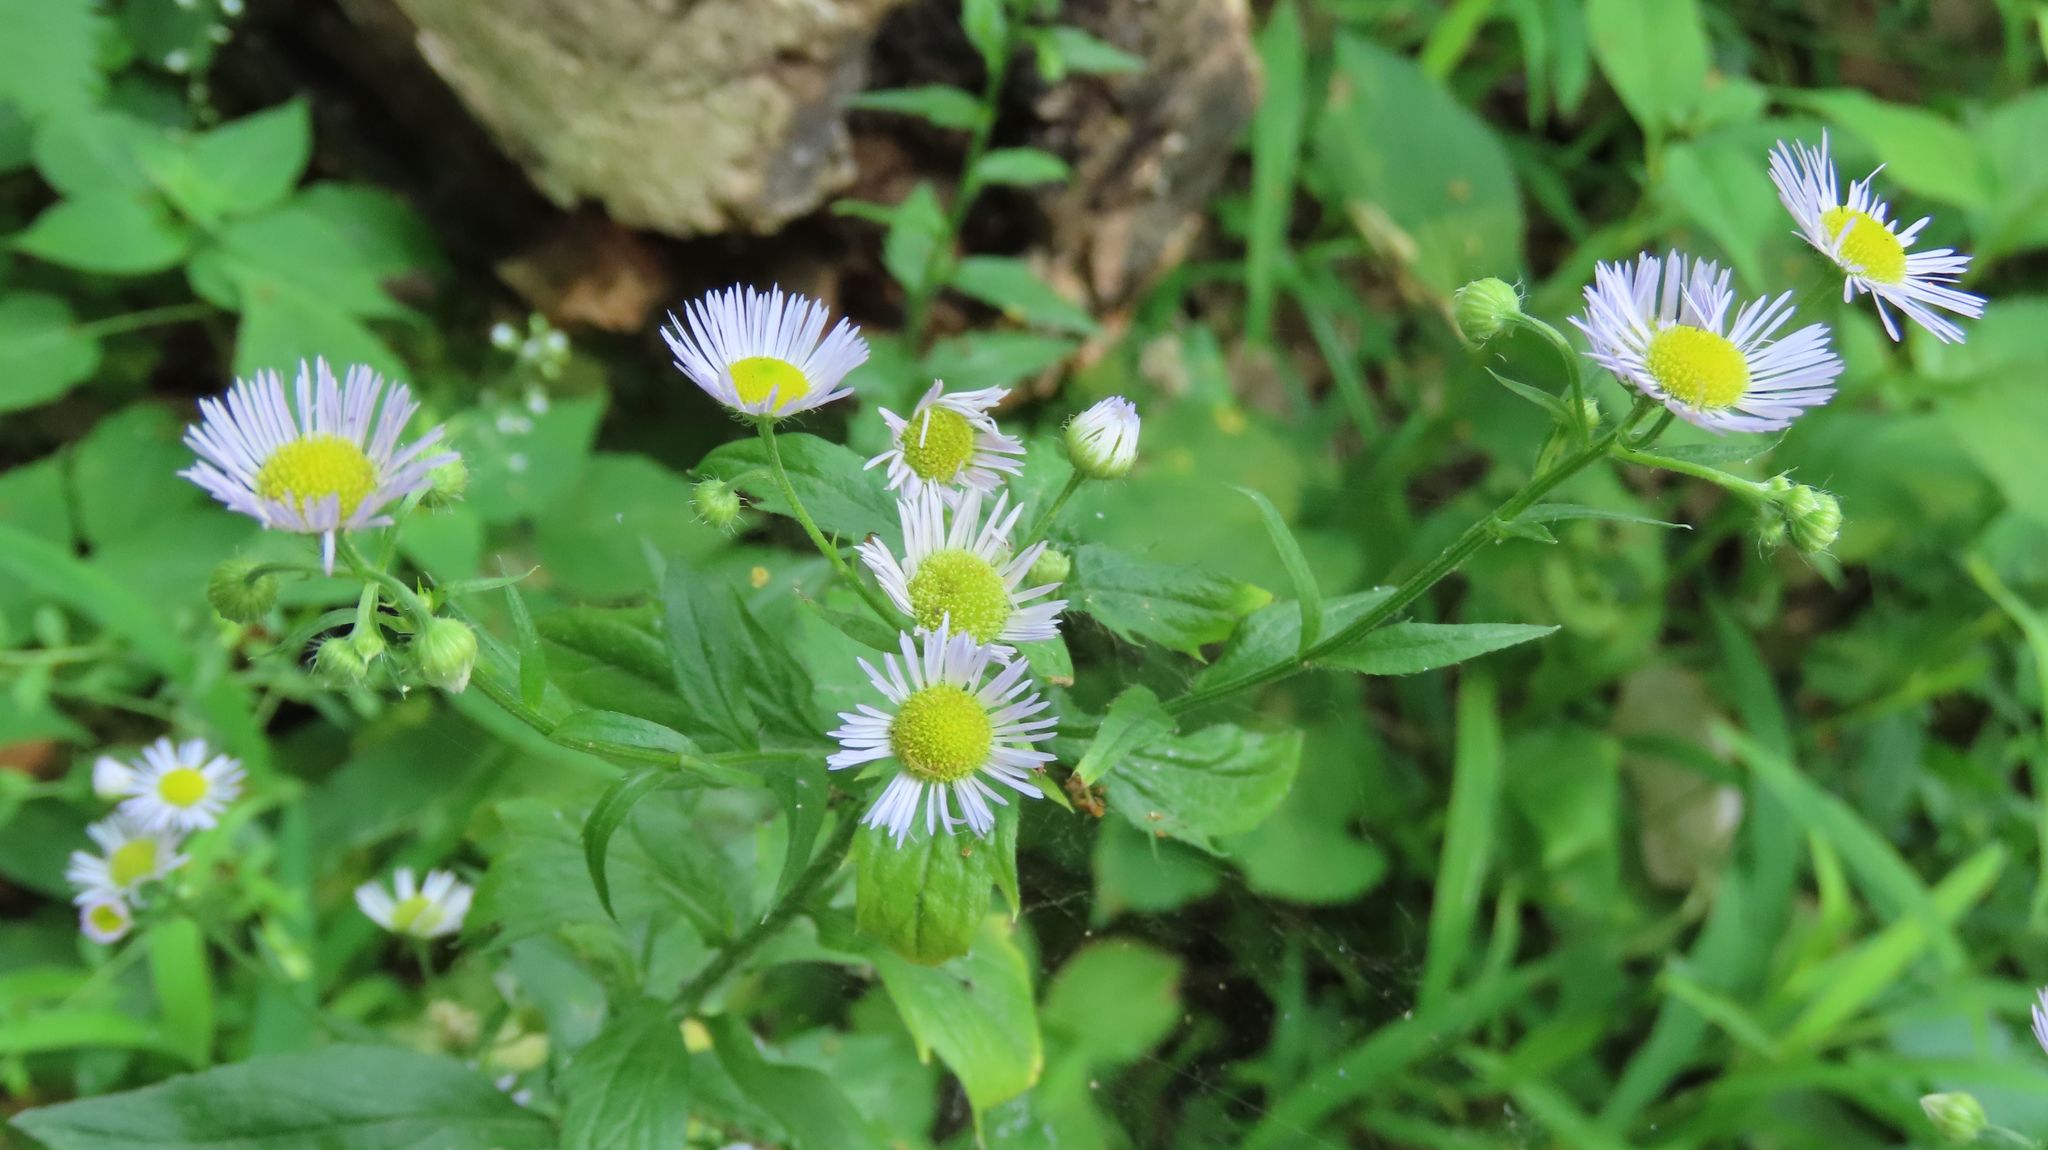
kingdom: Plantae
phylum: Tracheophyta
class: Magnoliopsida
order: Asterales
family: Asteraceae
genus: Erigeron
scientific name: Erigeron annuus
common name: Tall fleabane
